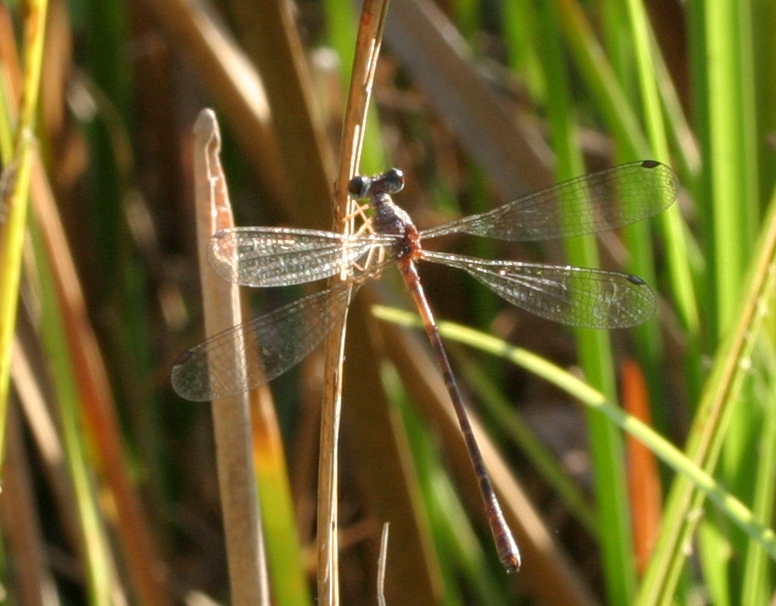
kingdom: Animalia
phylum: Arthropoda
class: Insecta
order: Odonata
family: Argiolestidae
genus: Podolestes
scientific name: Podolestes coomansi
